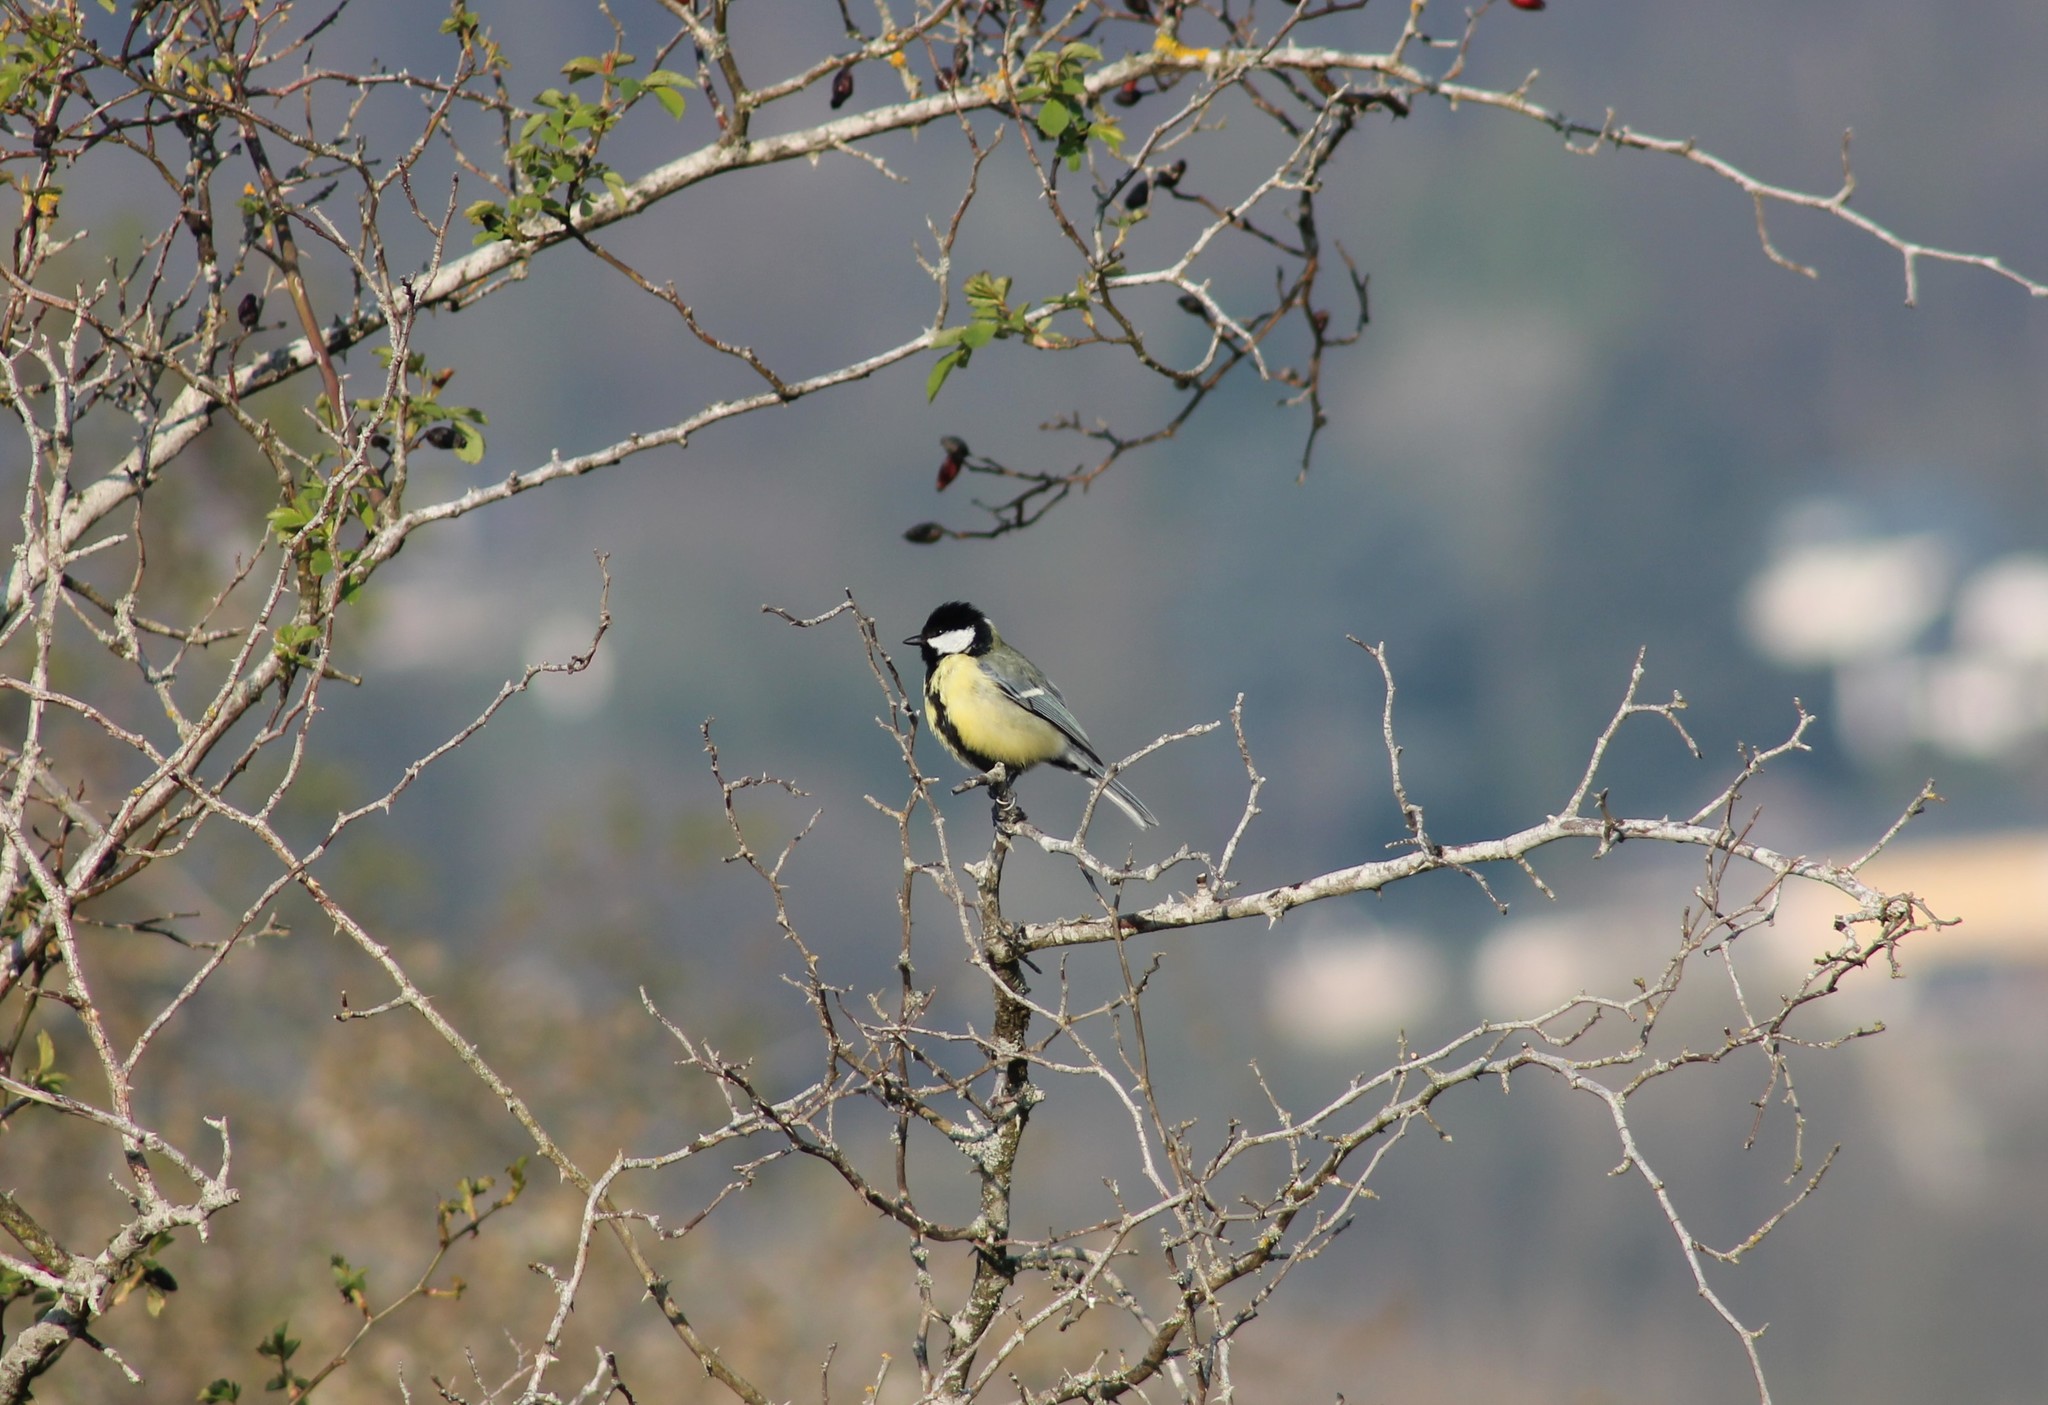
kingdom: Animalia
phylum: Chordata
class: Aves
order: Passeriformes
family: Paridae
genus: Parus
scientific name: Parus major
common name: Great tit
